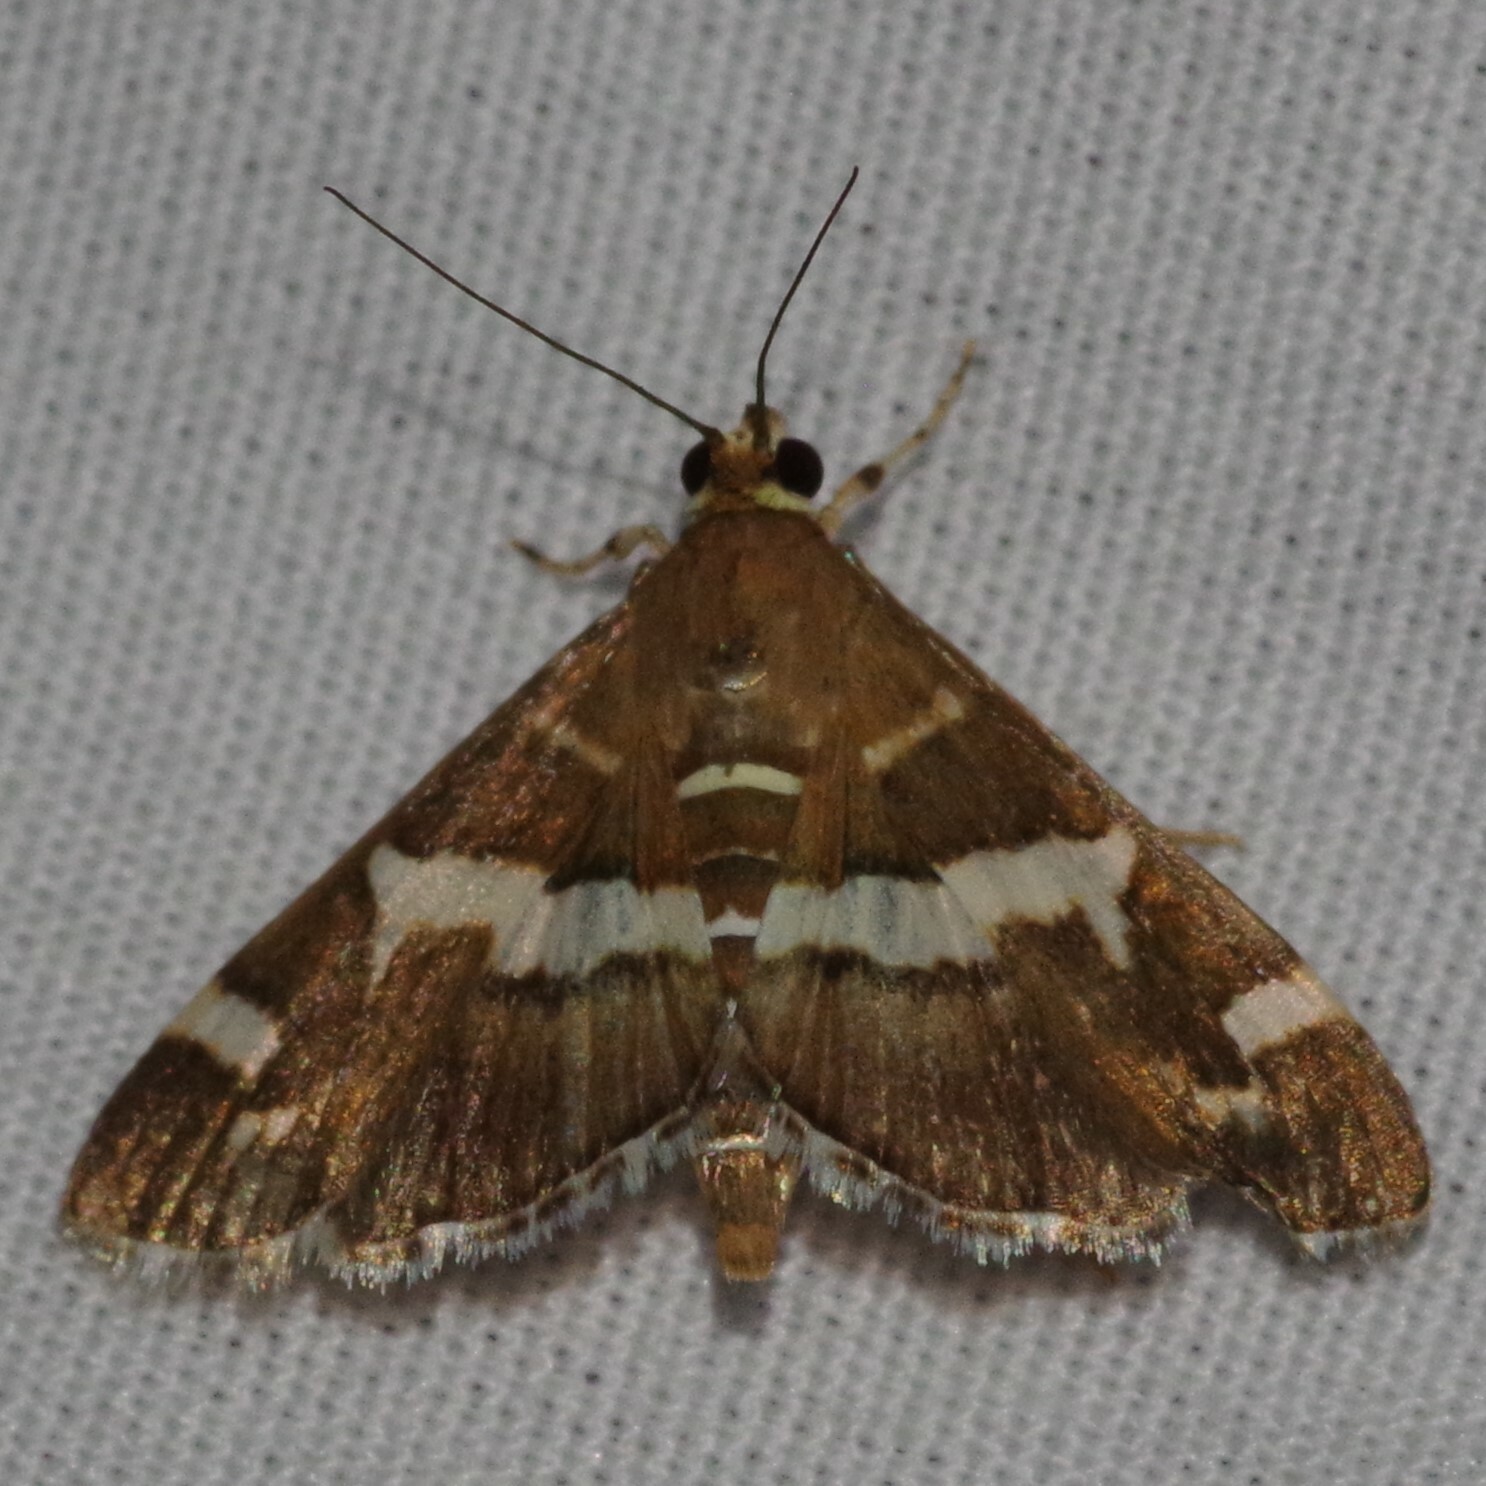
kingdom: Animalia
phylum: Arthropoda
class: Insecta
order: Lepidoptera
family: Crambidae
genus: Spoladea
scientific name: Spoladea recurvalis
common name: Beet webworm moth
